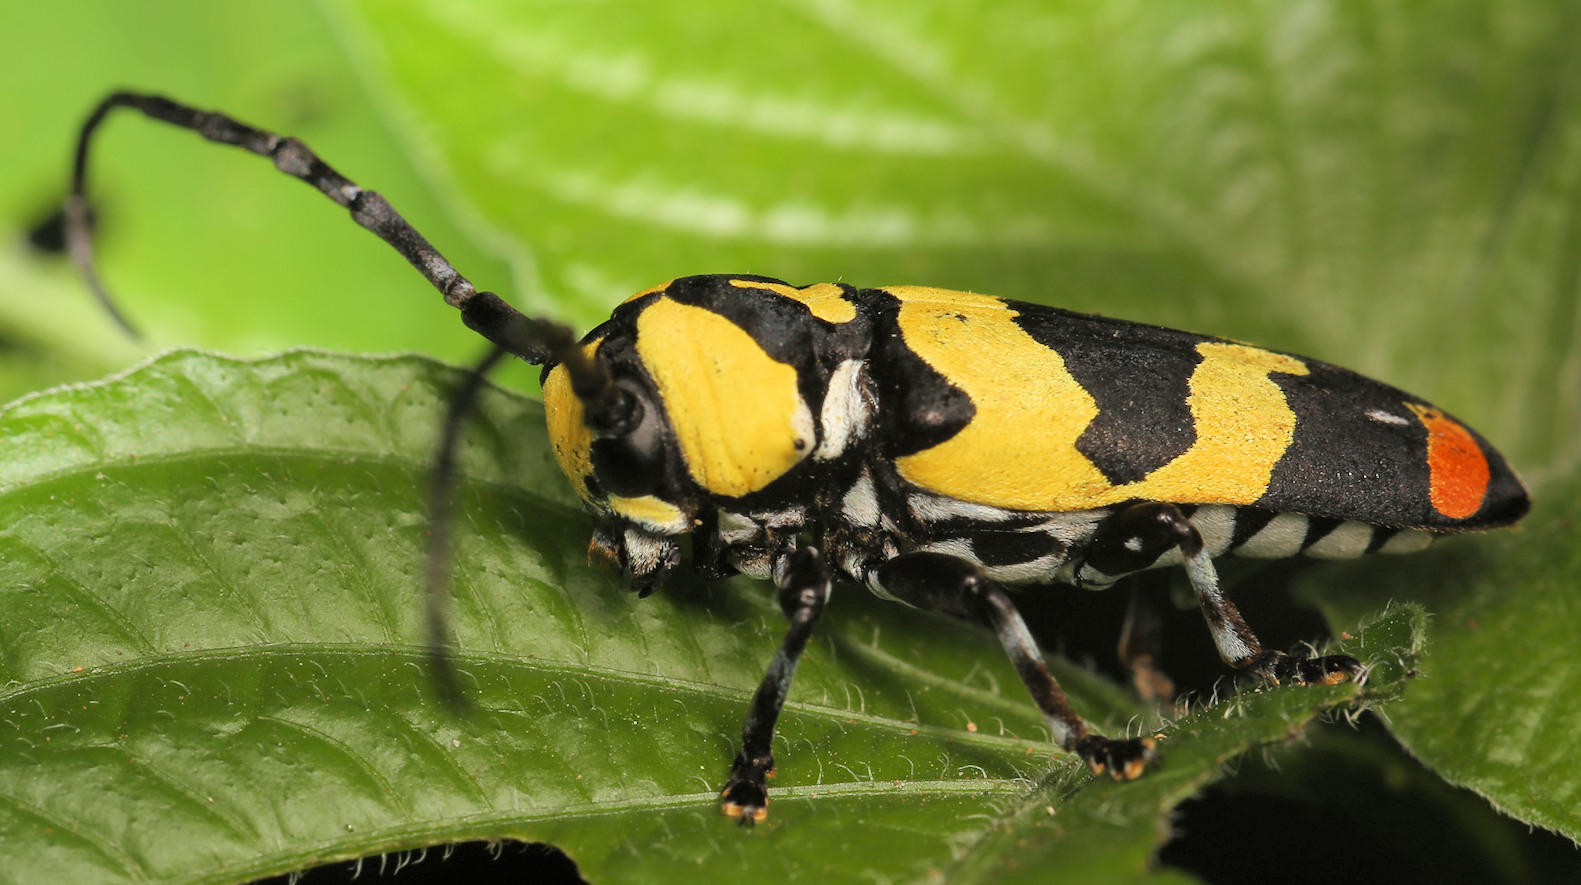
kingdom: Animalia
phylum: Arthropoda
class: Insecta
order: Coleoptera
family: Cerambycidae
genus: Tragocephala
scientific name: Tragocephala mima
